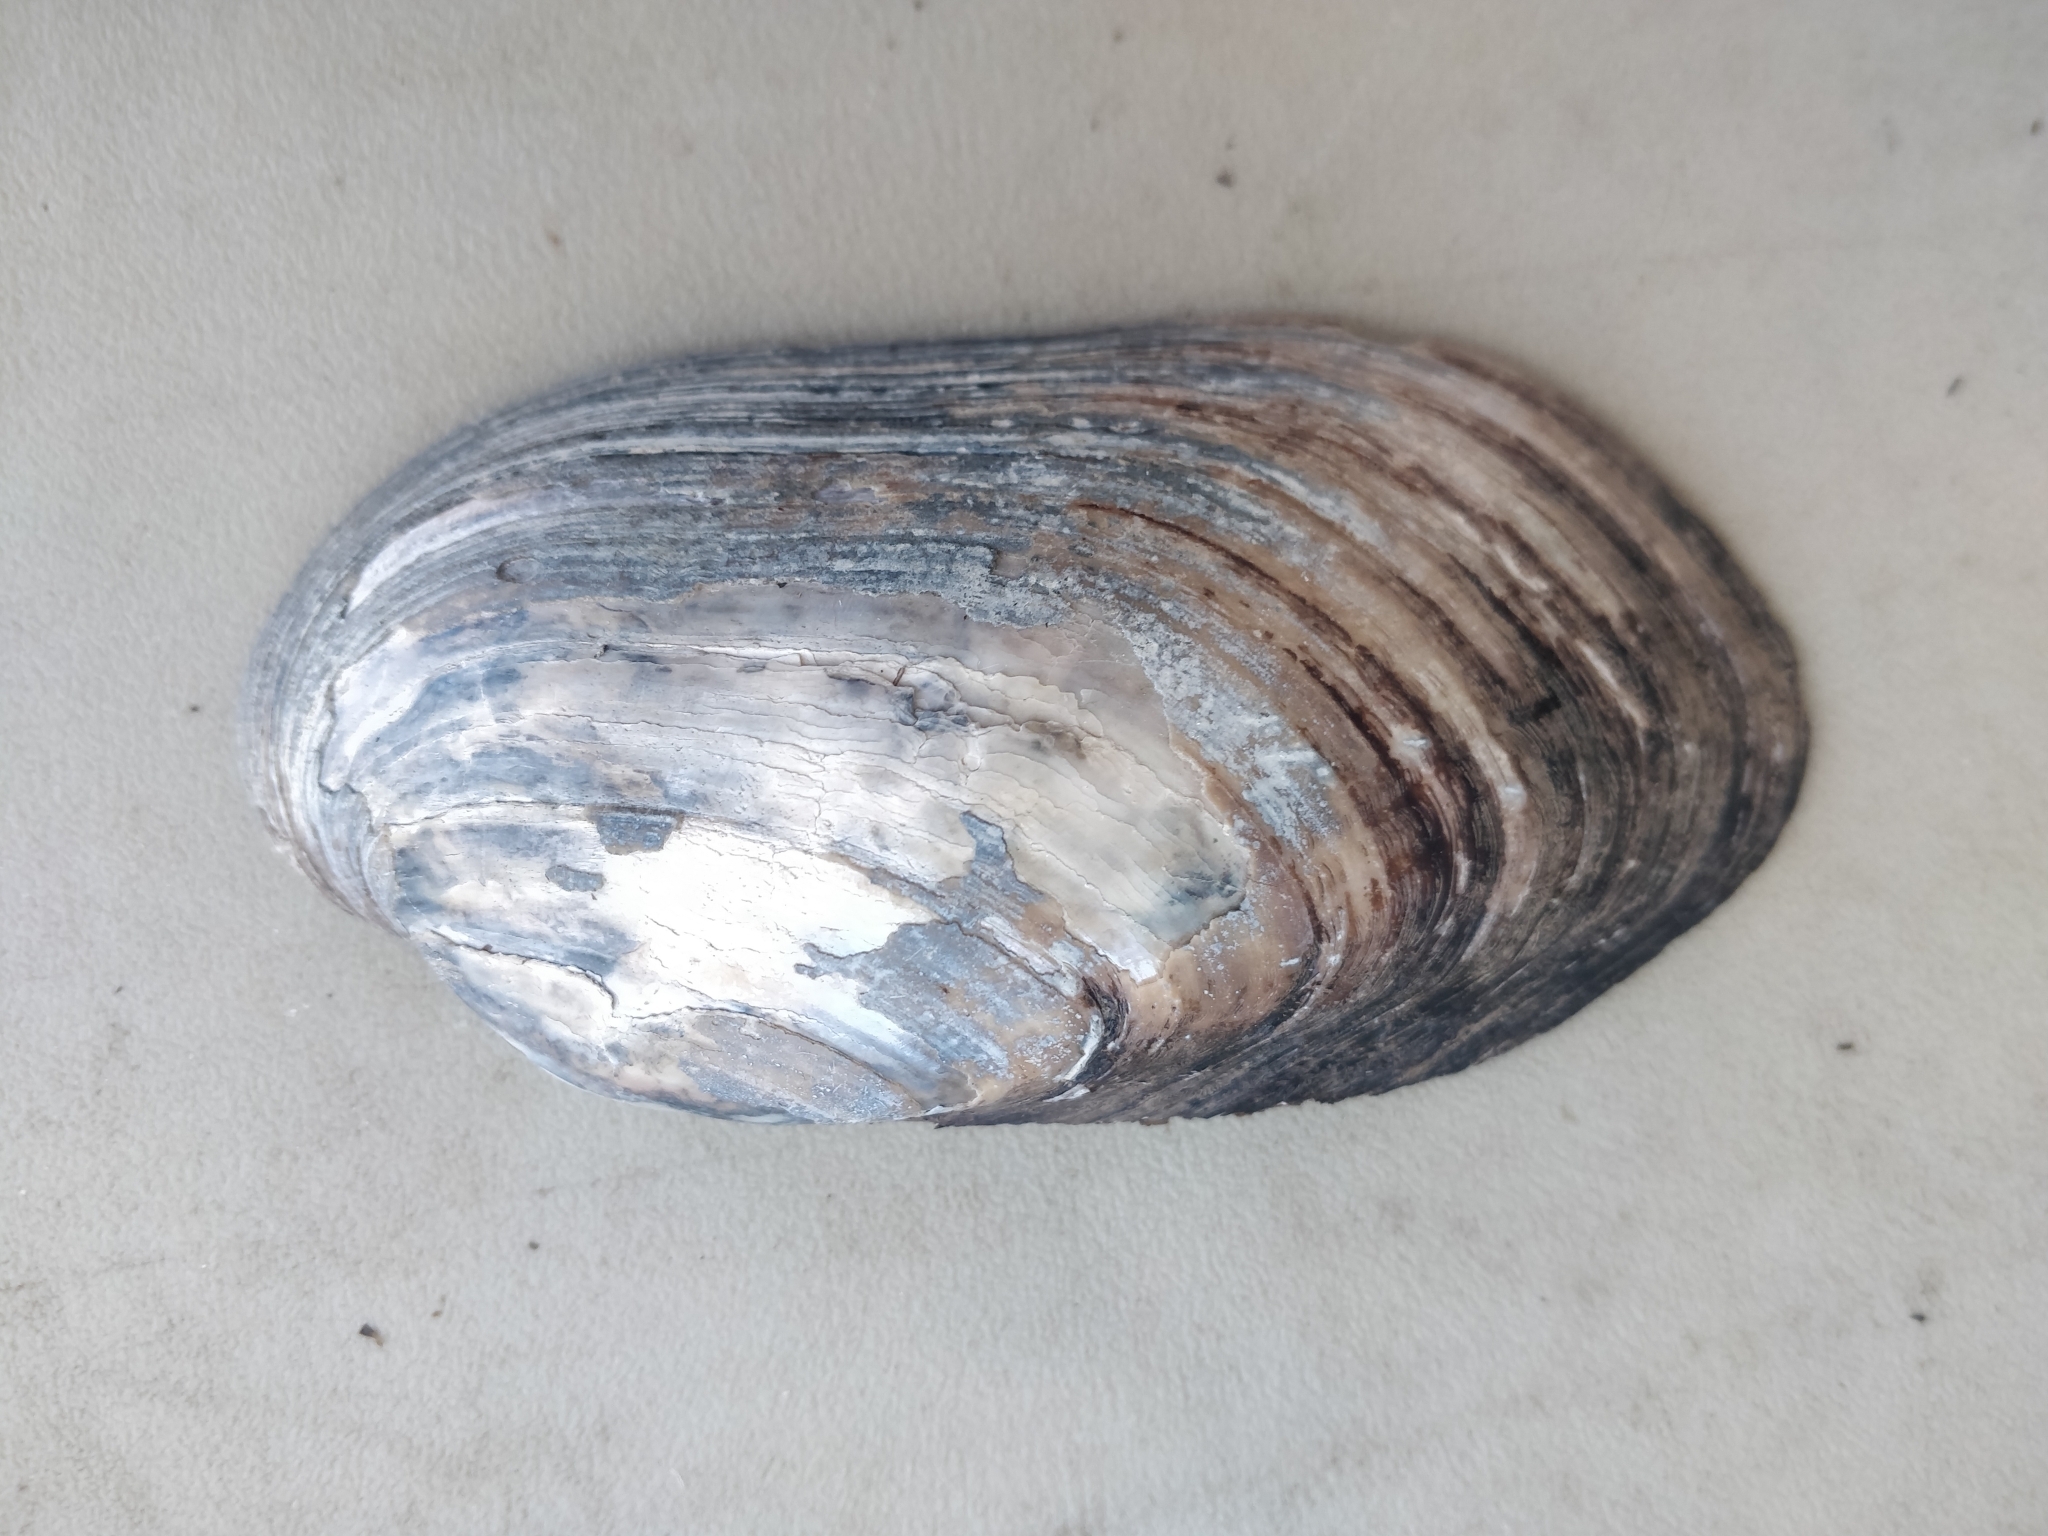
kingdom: Animalia
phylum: Mollusca
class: Bivalvia
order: Unionida
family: Unionidae
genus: Lampsilis
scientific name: Lampsilis siliquoidea
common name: Fatmucket
